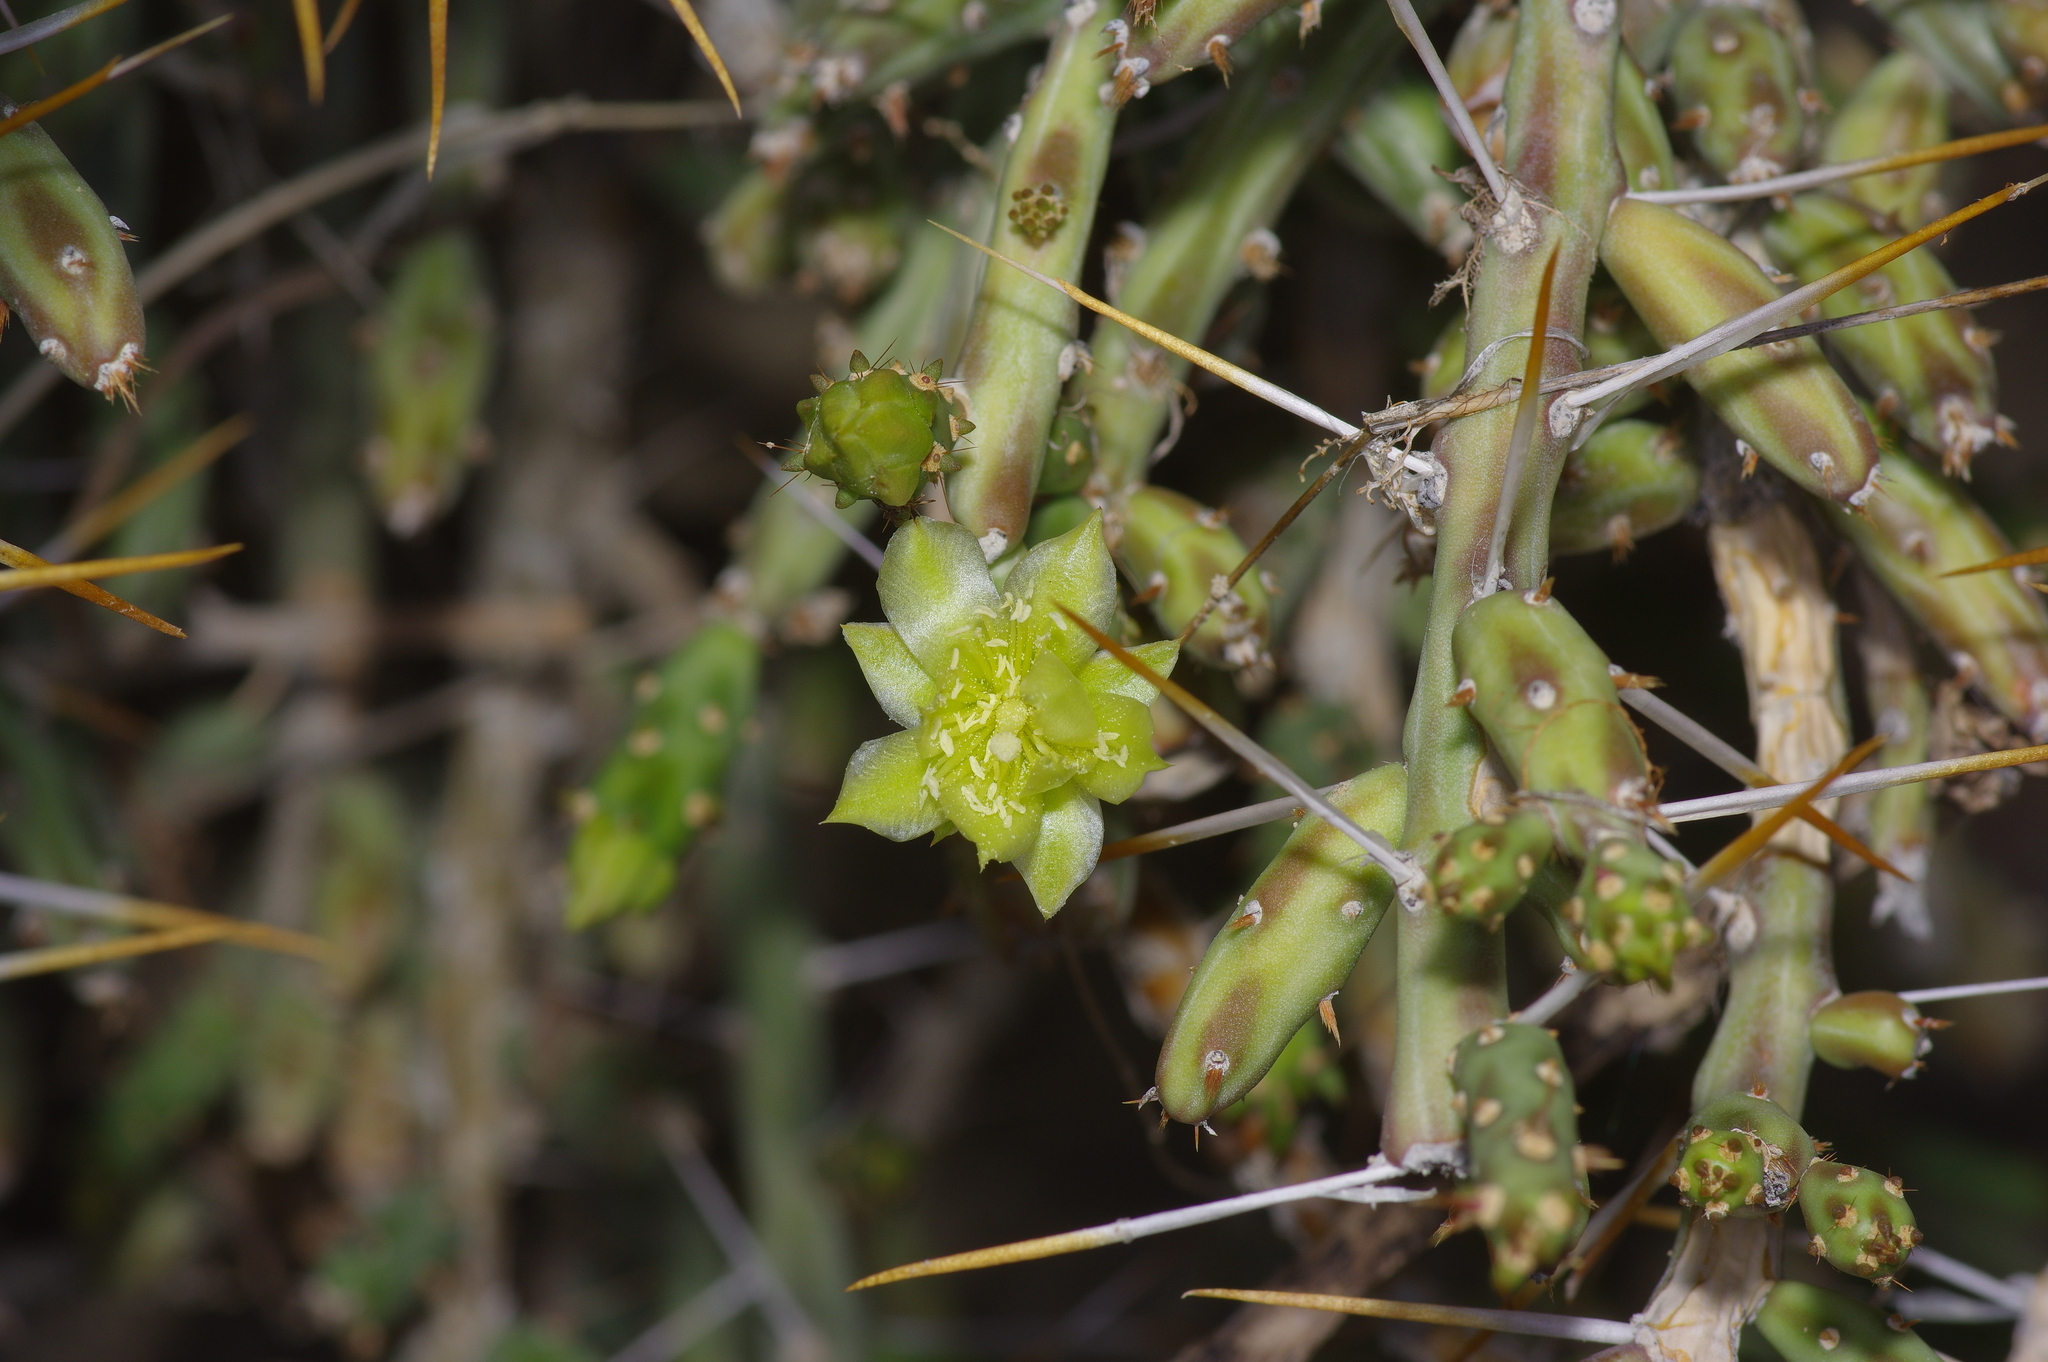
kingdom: Plantae
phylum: Tracheophyta
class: Magnoliopsida
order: Caryophyllales
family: Cactaceae
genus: Cylindropuntia
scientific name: Cylindropuntia leptocaulis
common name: Christmas cactus
